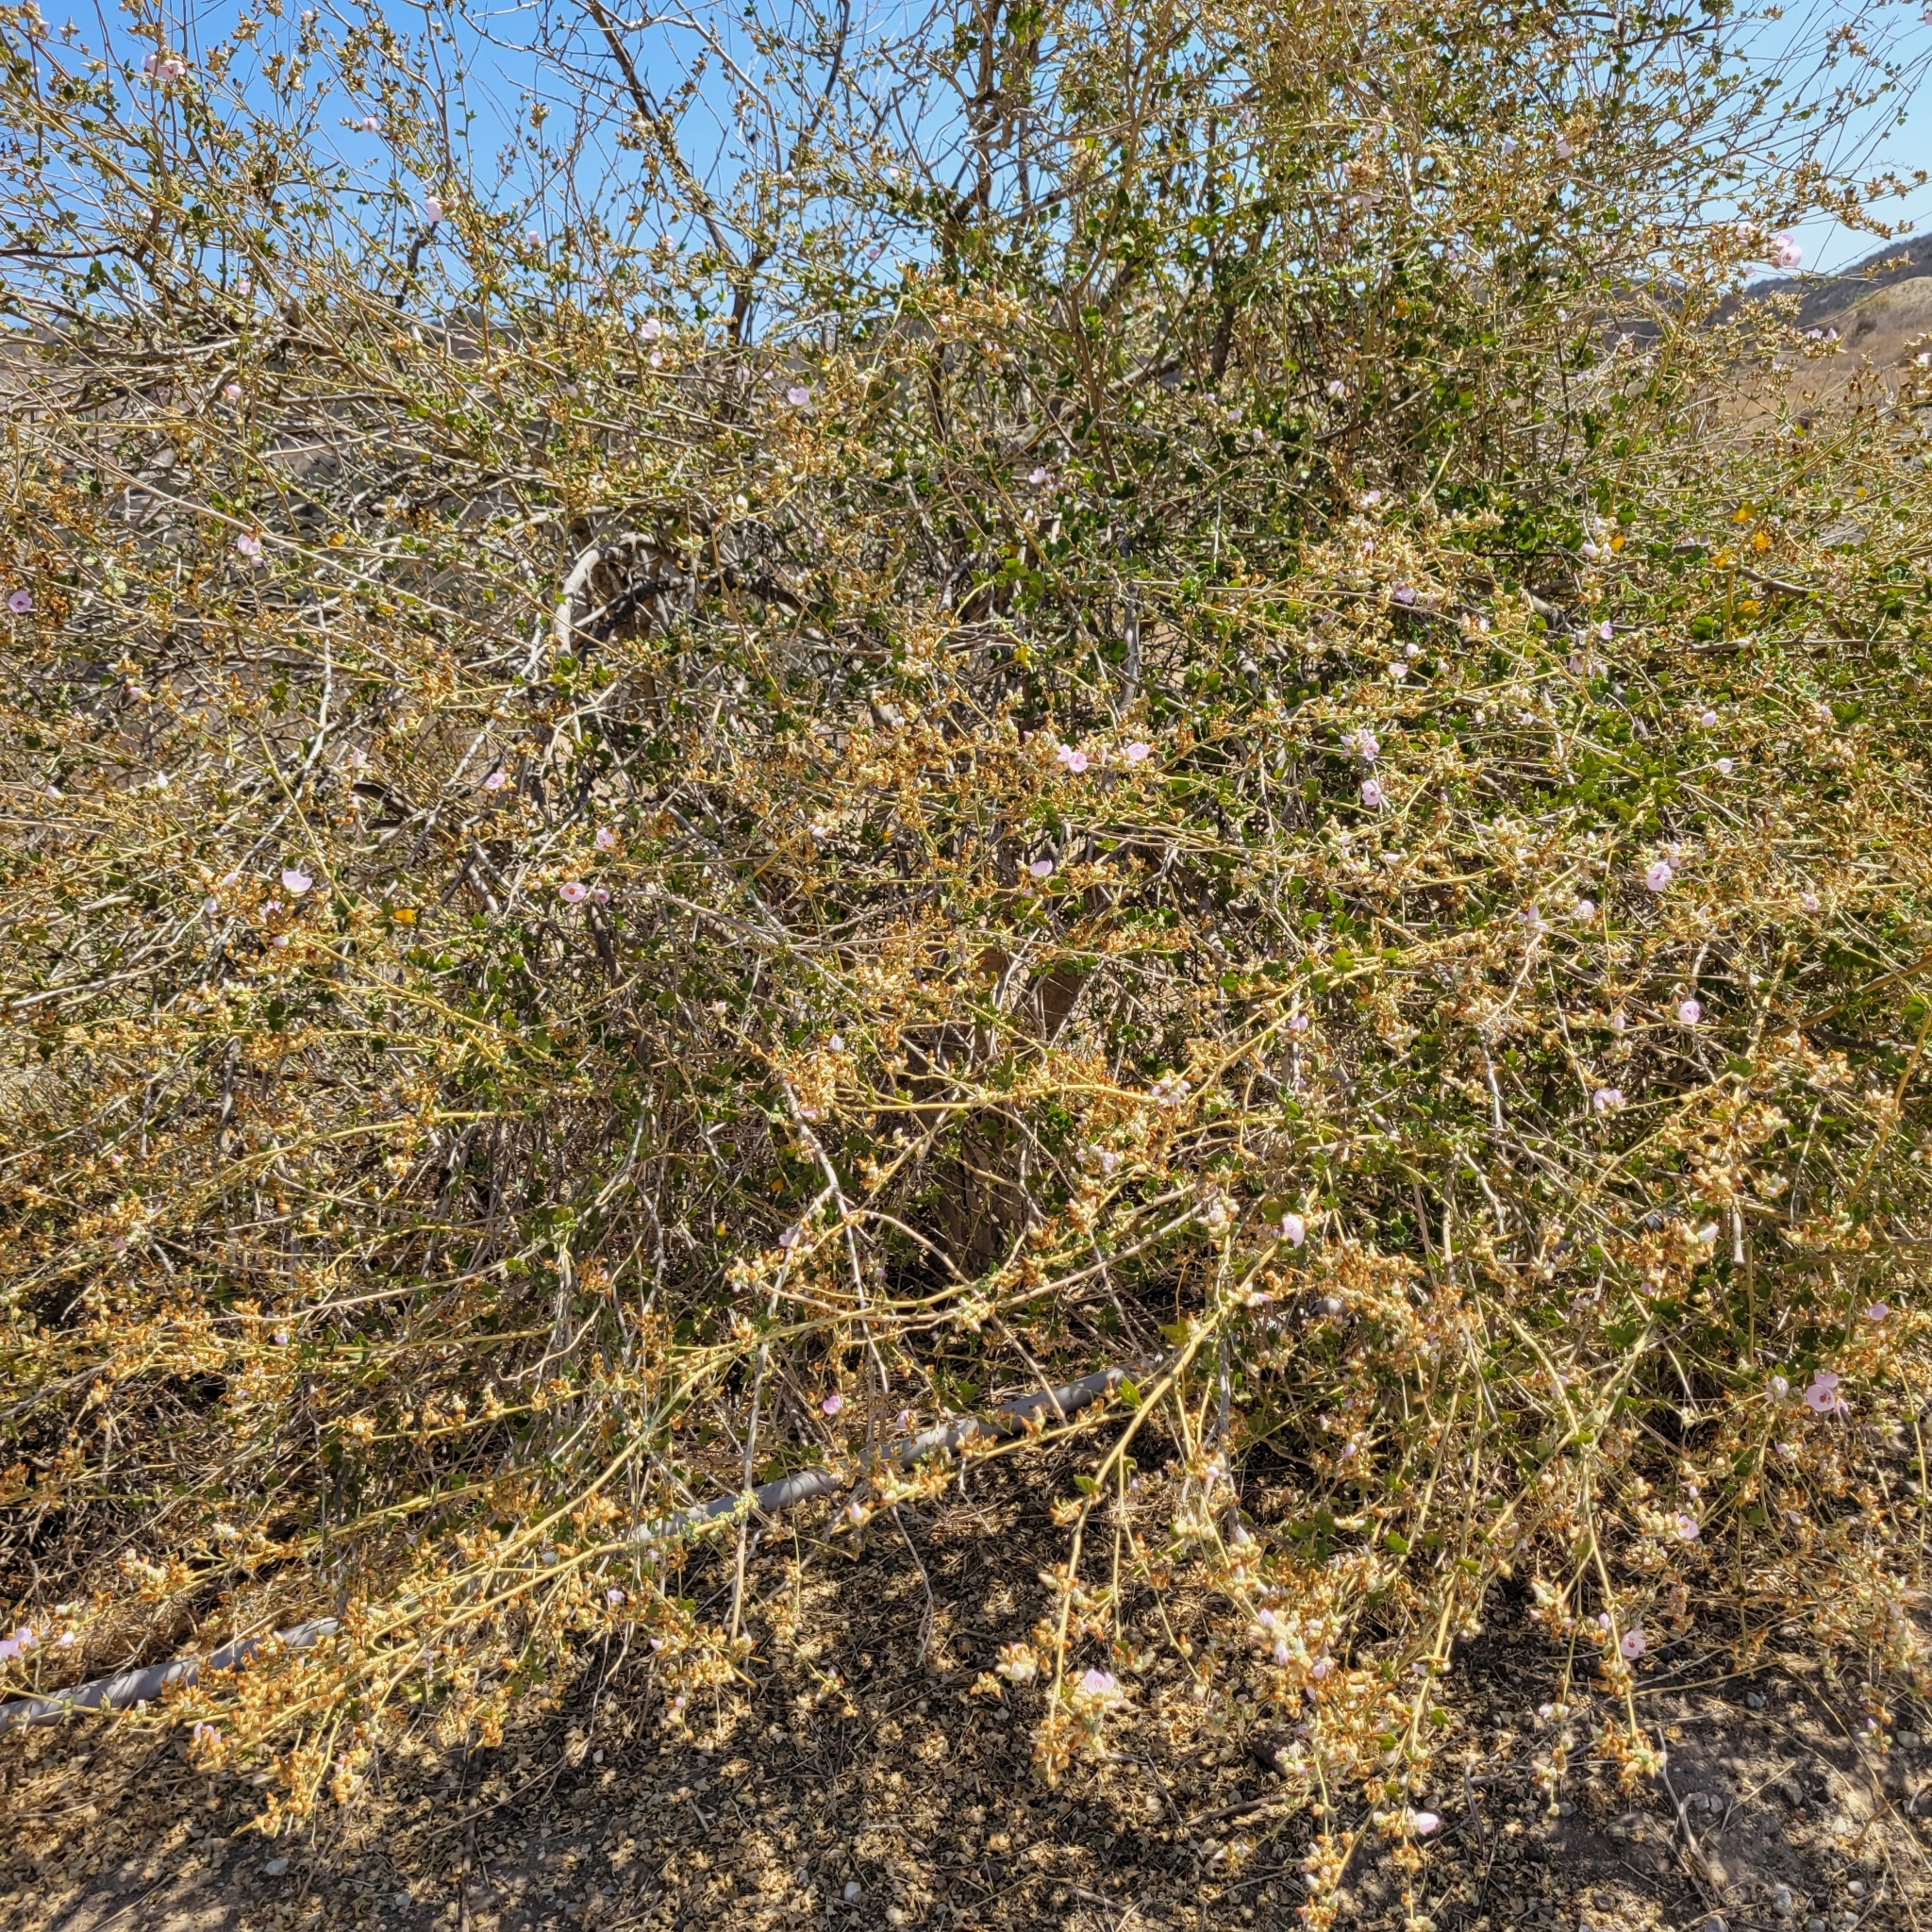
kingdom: Plantae
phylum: Tracheophyta
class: Magnoliopsida
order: Malvales
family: Malvaceae
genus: Malacothamnus
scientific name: Malacothamnus fasciculatus
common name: Sant cruz island bush-mallow
